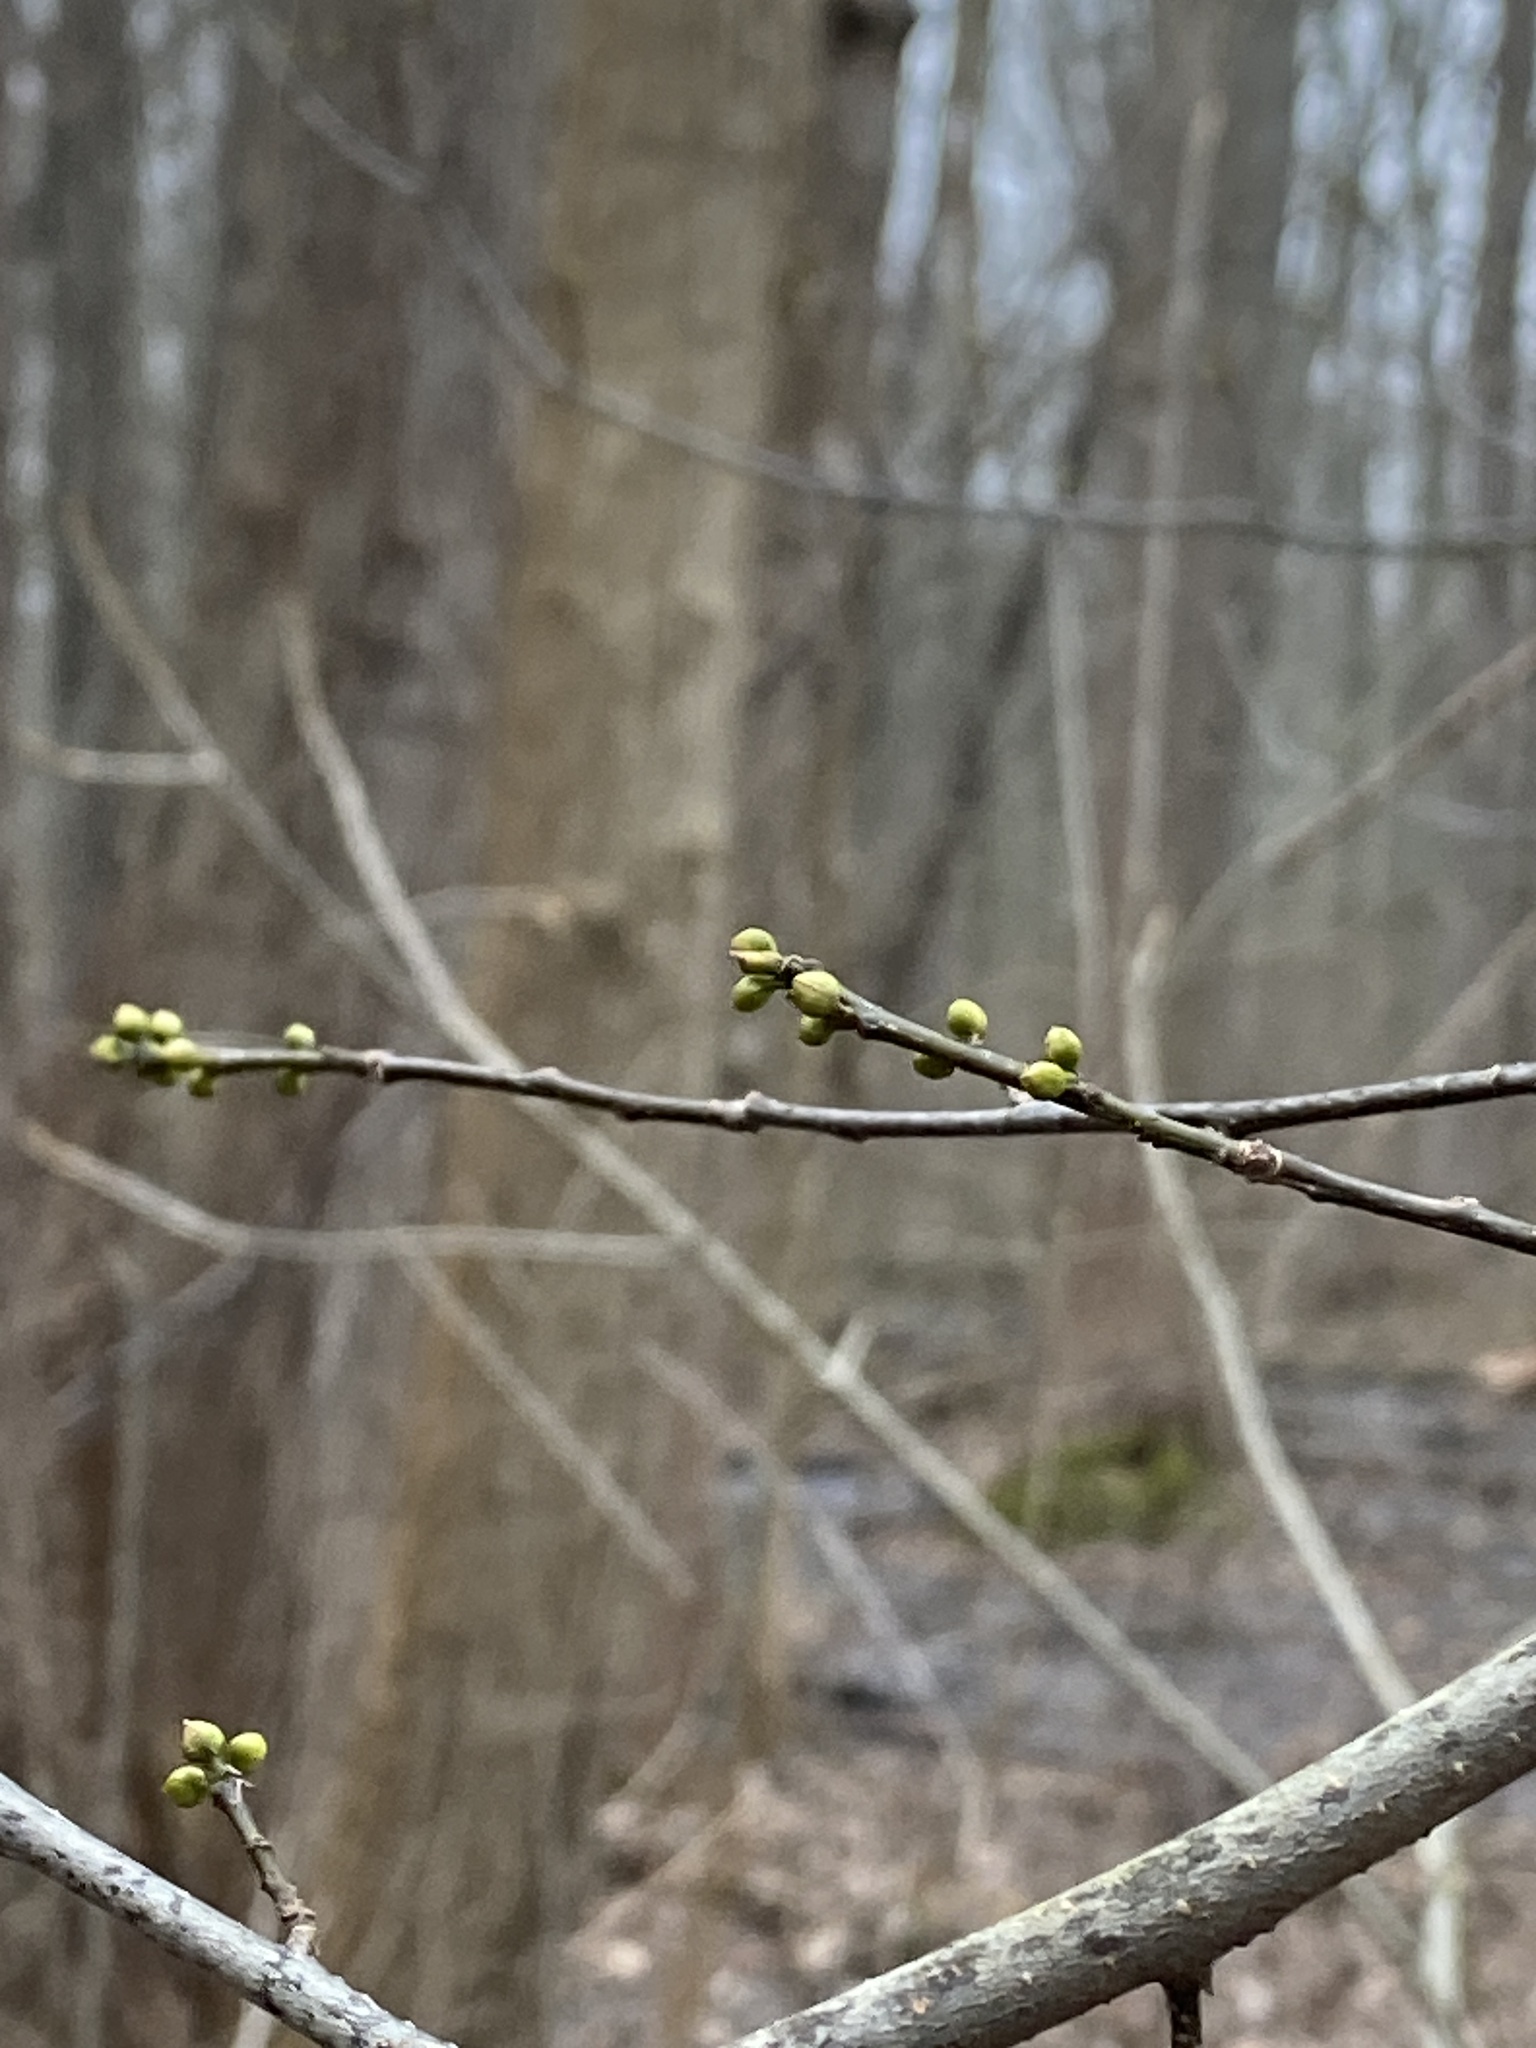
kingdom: Plantae
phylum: Tracheophyta
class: Magnoliopsida
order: Laurales
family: Lauraceae
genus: Lindera
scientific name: Lindera benzoin
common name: Spicebush
